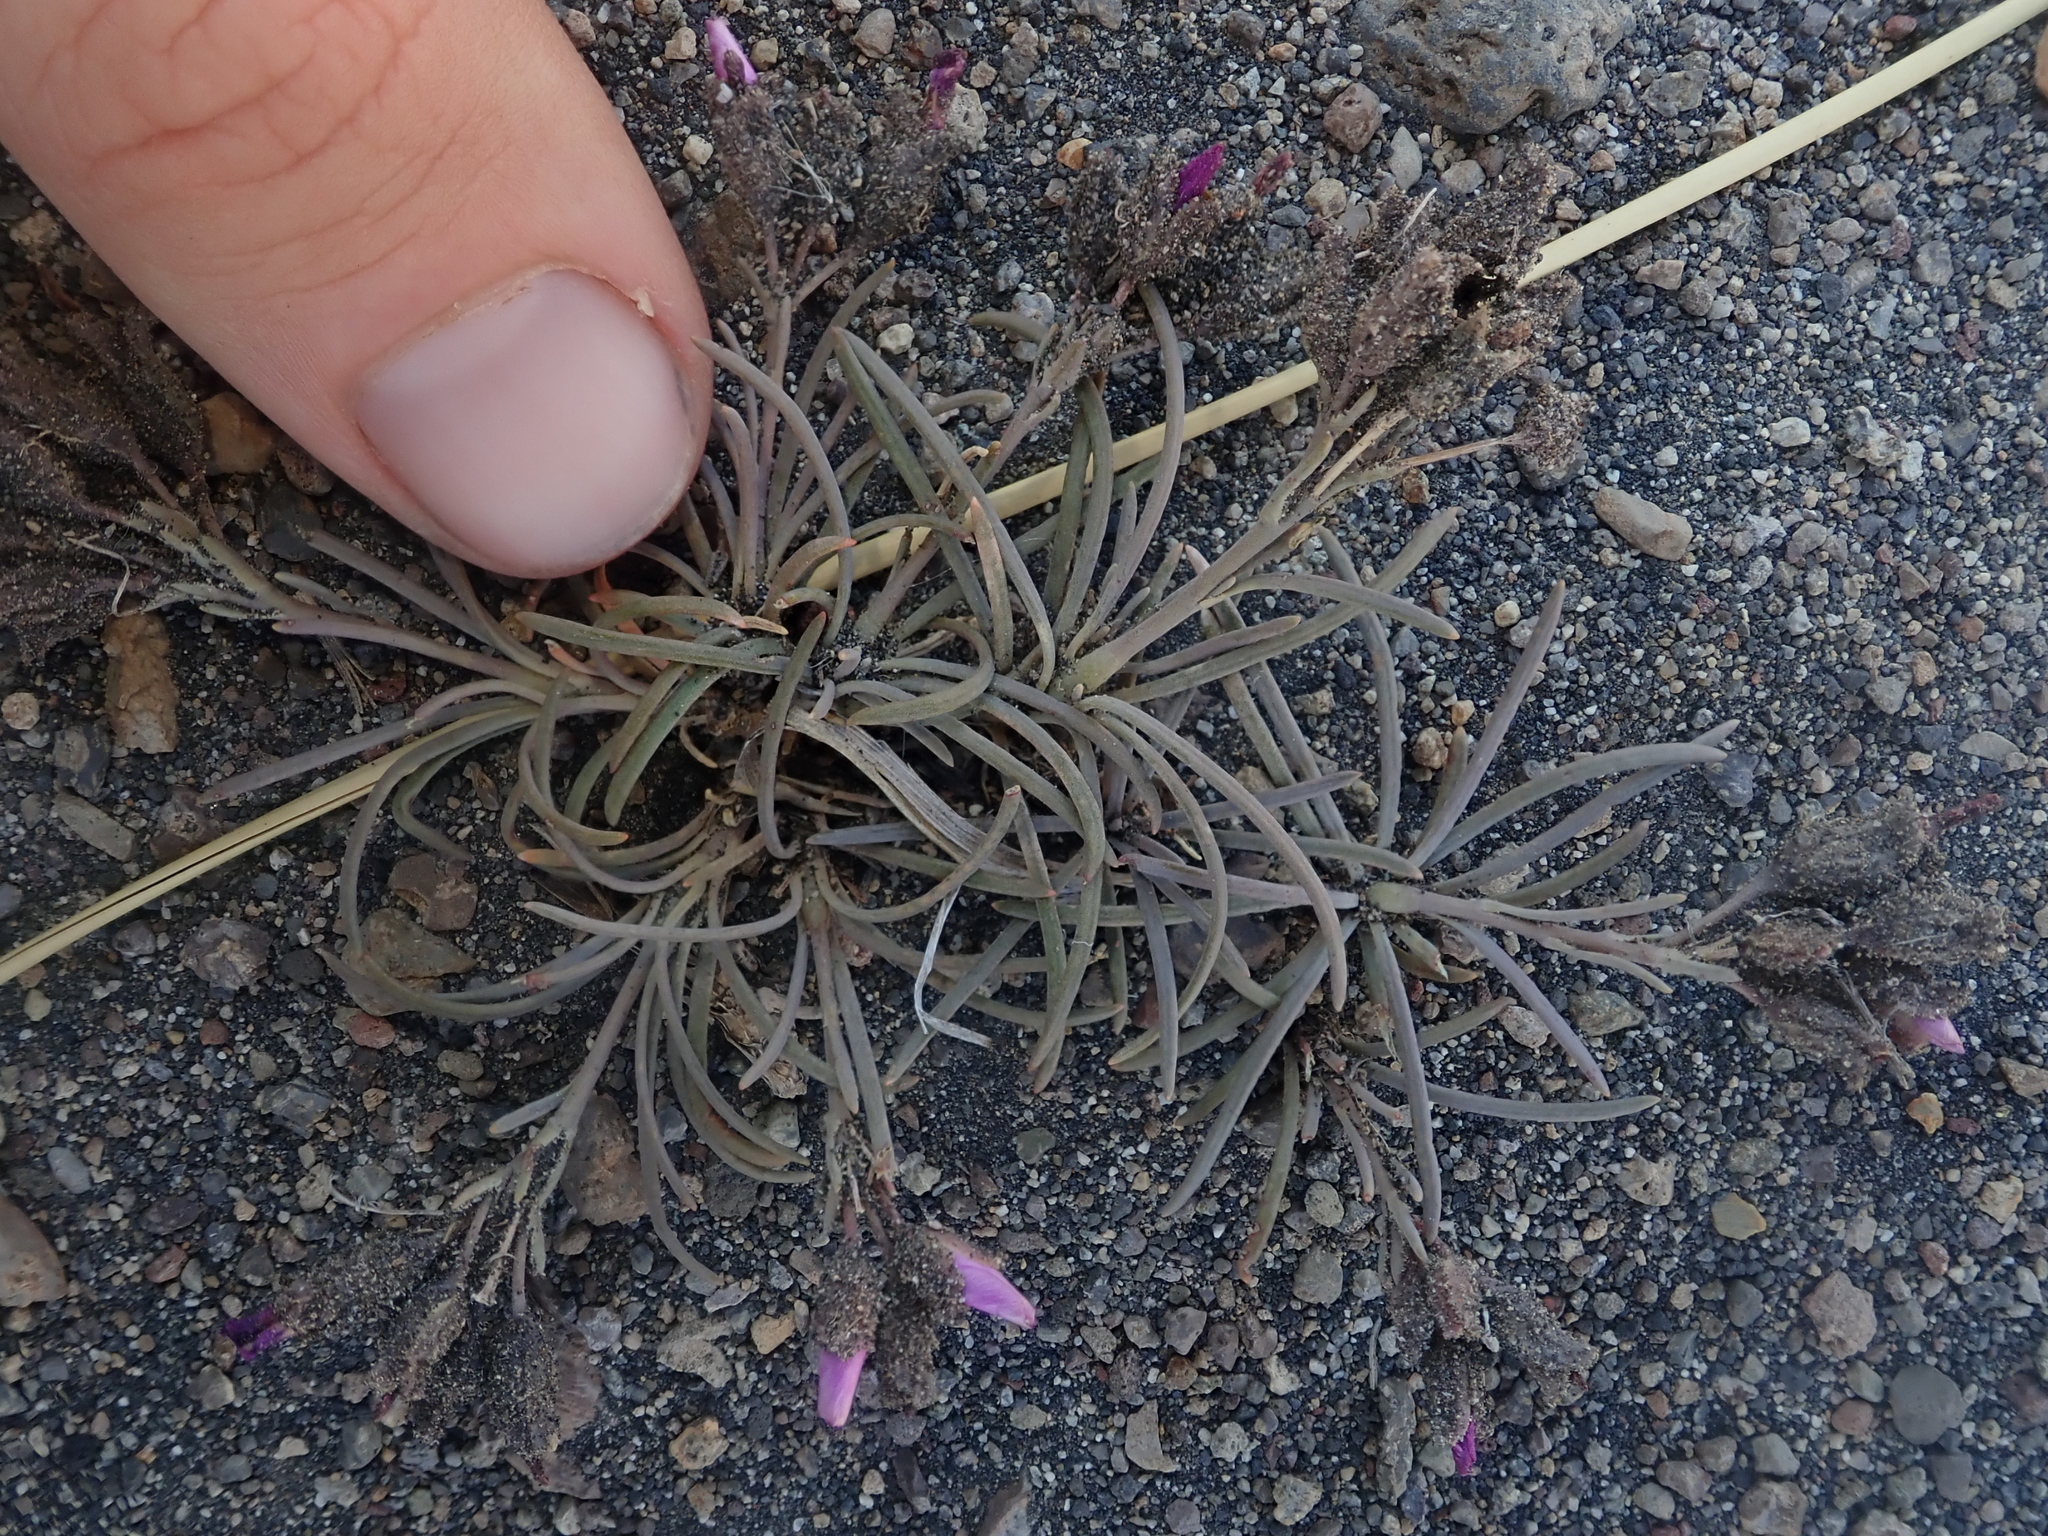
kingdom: Plantae
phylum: Tracheophyta
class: Magnoliopsida
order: Caryophyllales
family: Montiaceae
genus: Montiopsis
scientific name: Montiopsis gayana
